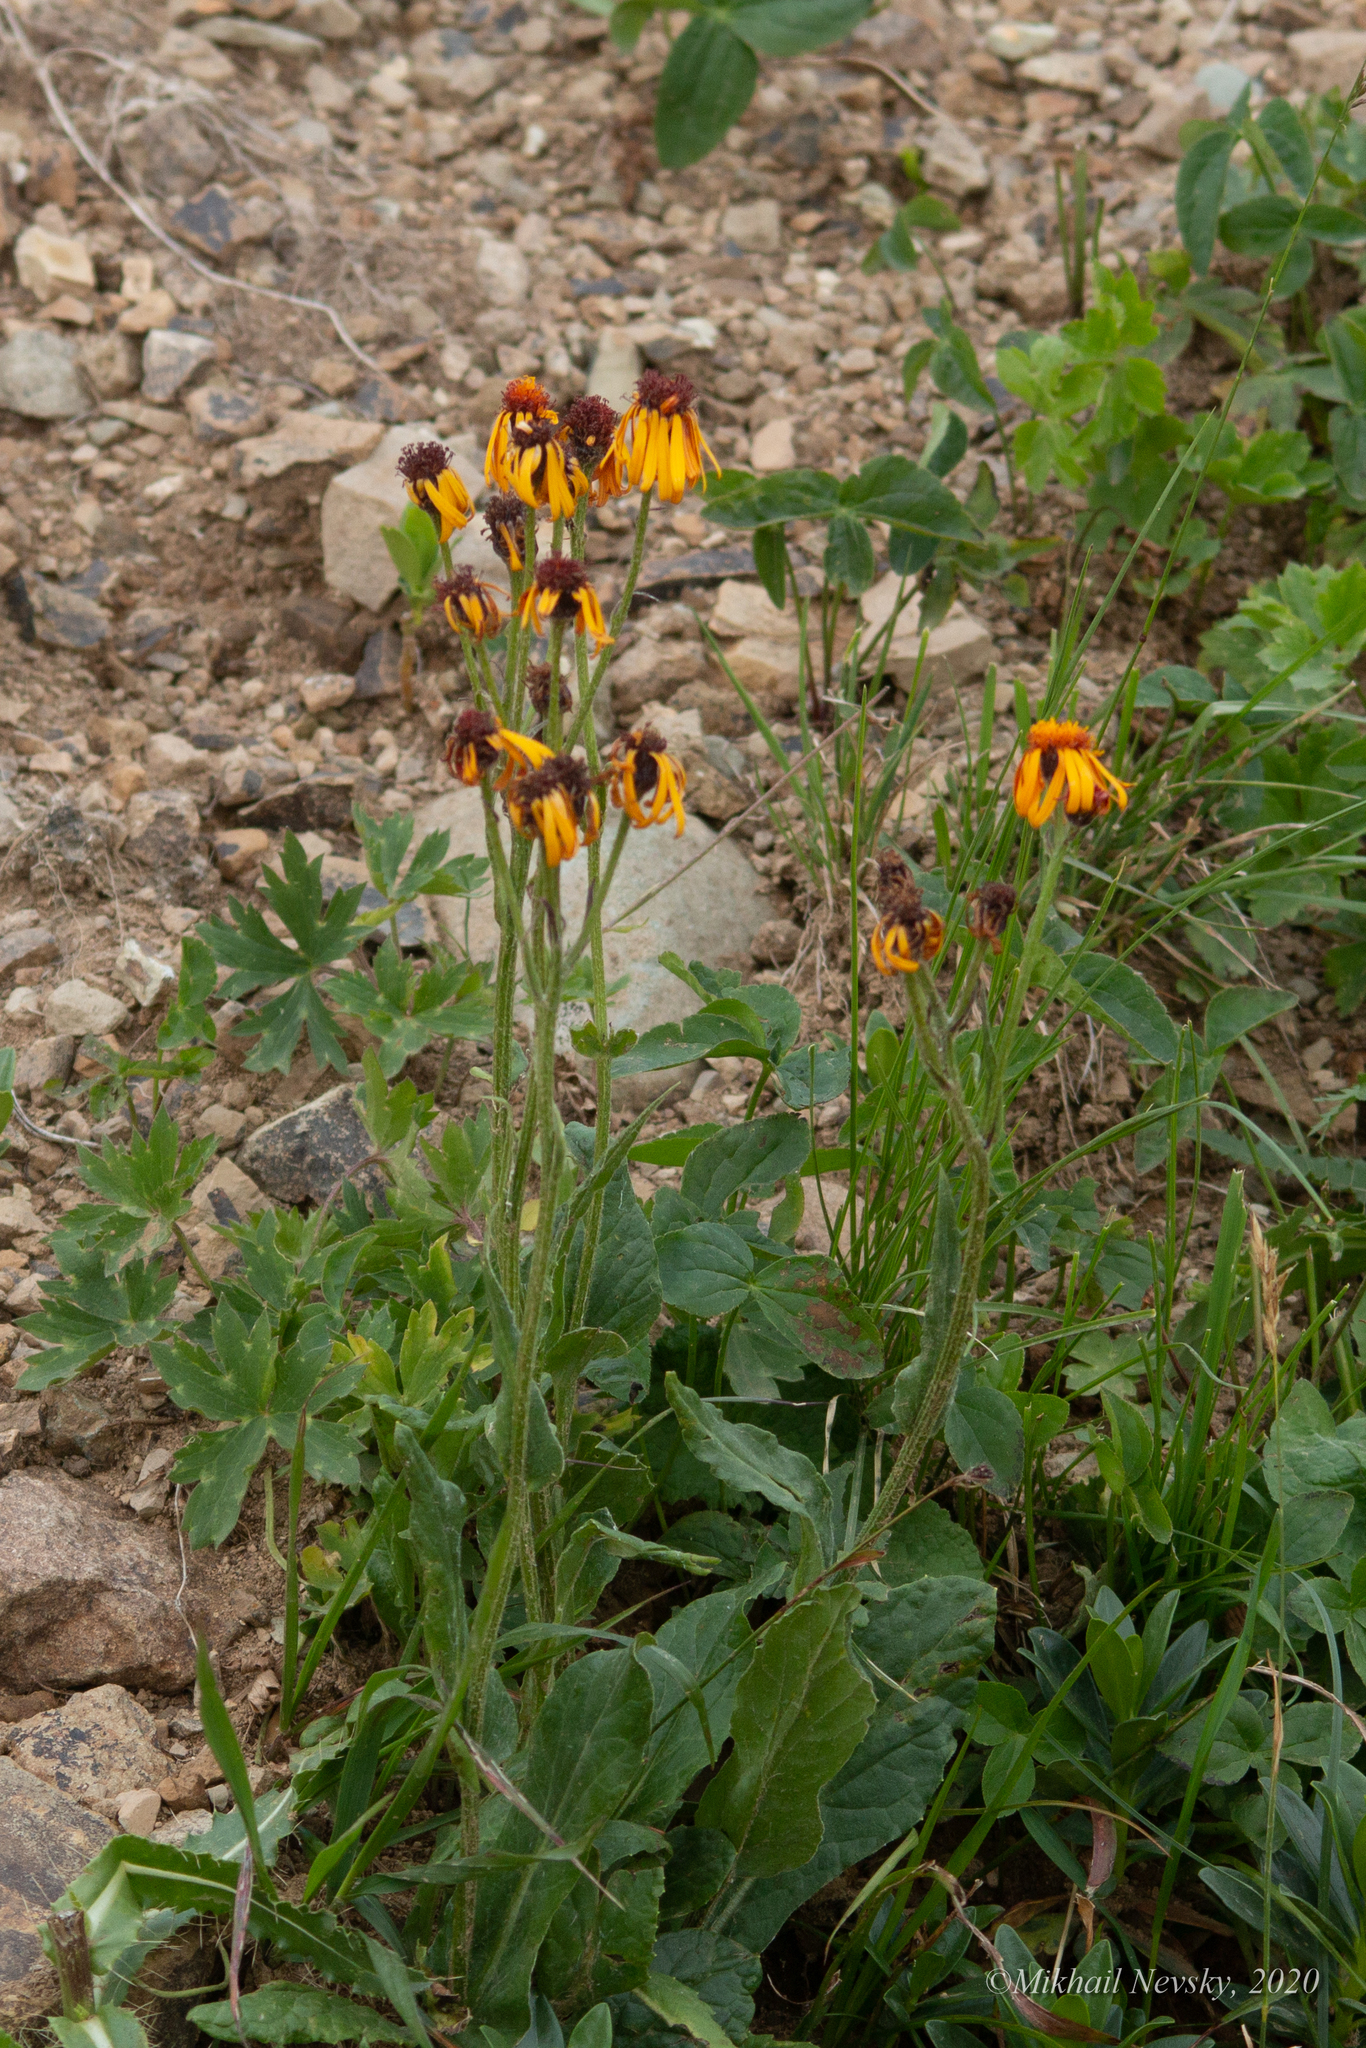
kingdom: Plantae
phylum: Tracheophyta
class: Magnoliopsida
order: Asterales
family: Asteraceae
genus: Tephroseris
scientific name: Tephroseris integrifolia
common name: Field fleawort
